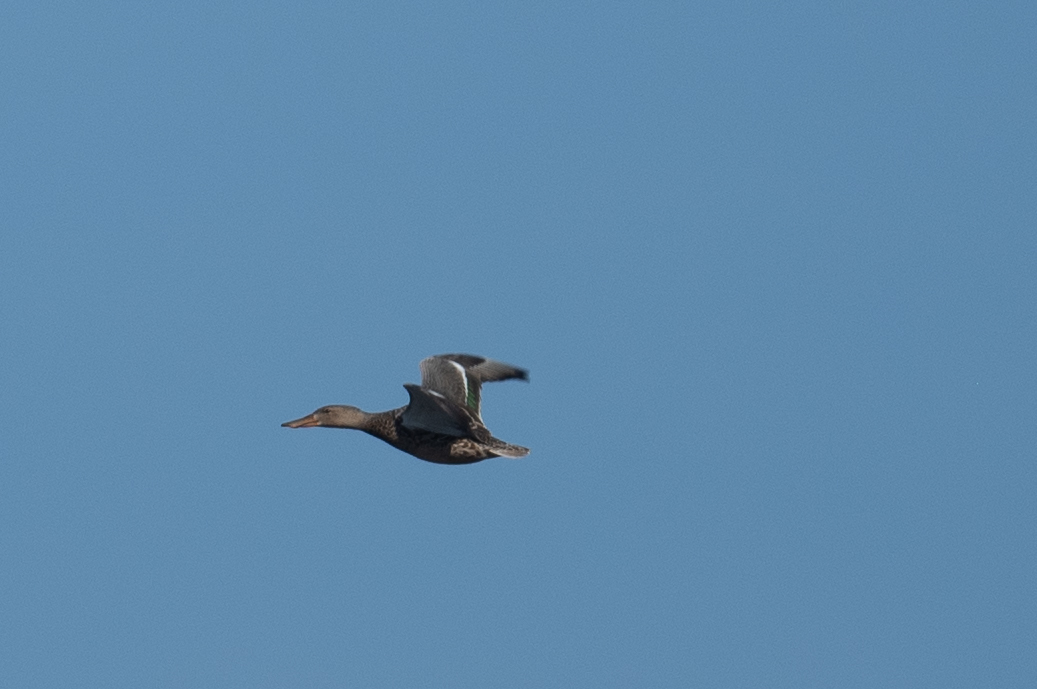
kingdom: Animalia
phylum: Chordata
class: Aves
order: Anseriformes
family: Anatidae
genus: Spatula
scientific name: Spatula clypeata
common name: Northern shoveler
